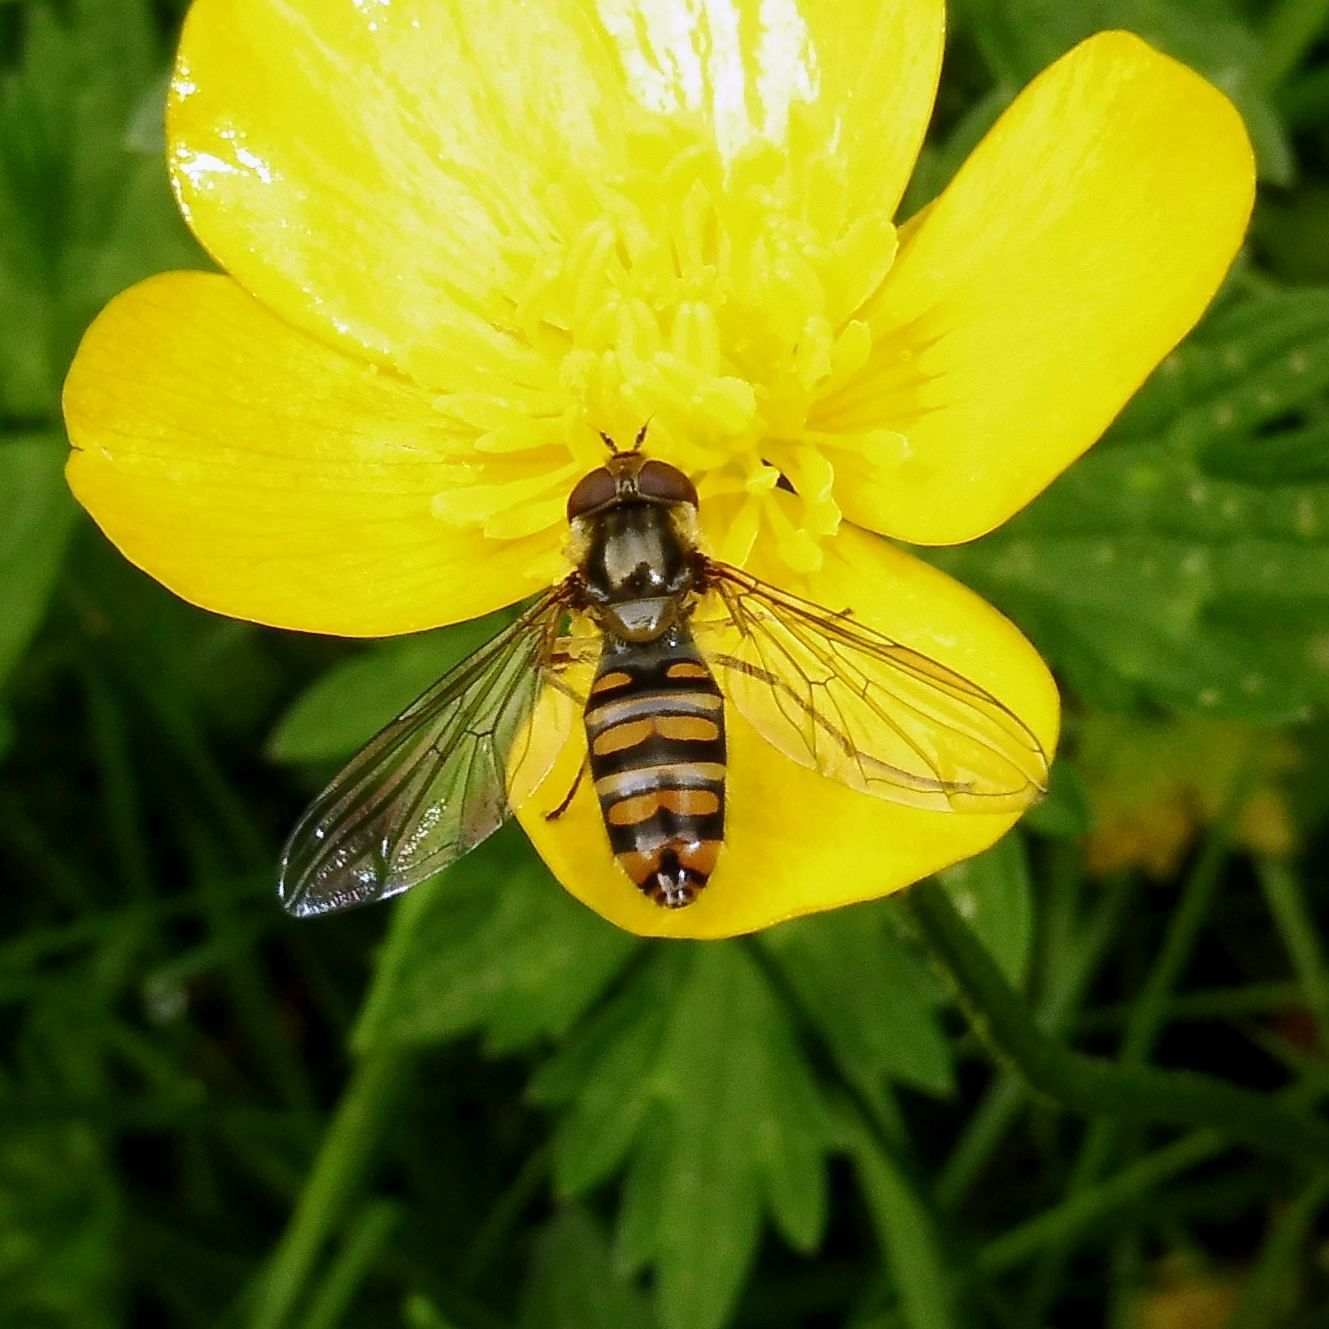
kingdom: Animalia
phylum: Arthropoda
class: Insecta
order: Diptera
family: Syrphidae
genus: Episyrphus
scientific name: Episyrphus balteatus
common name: Marmalade hoverfly
